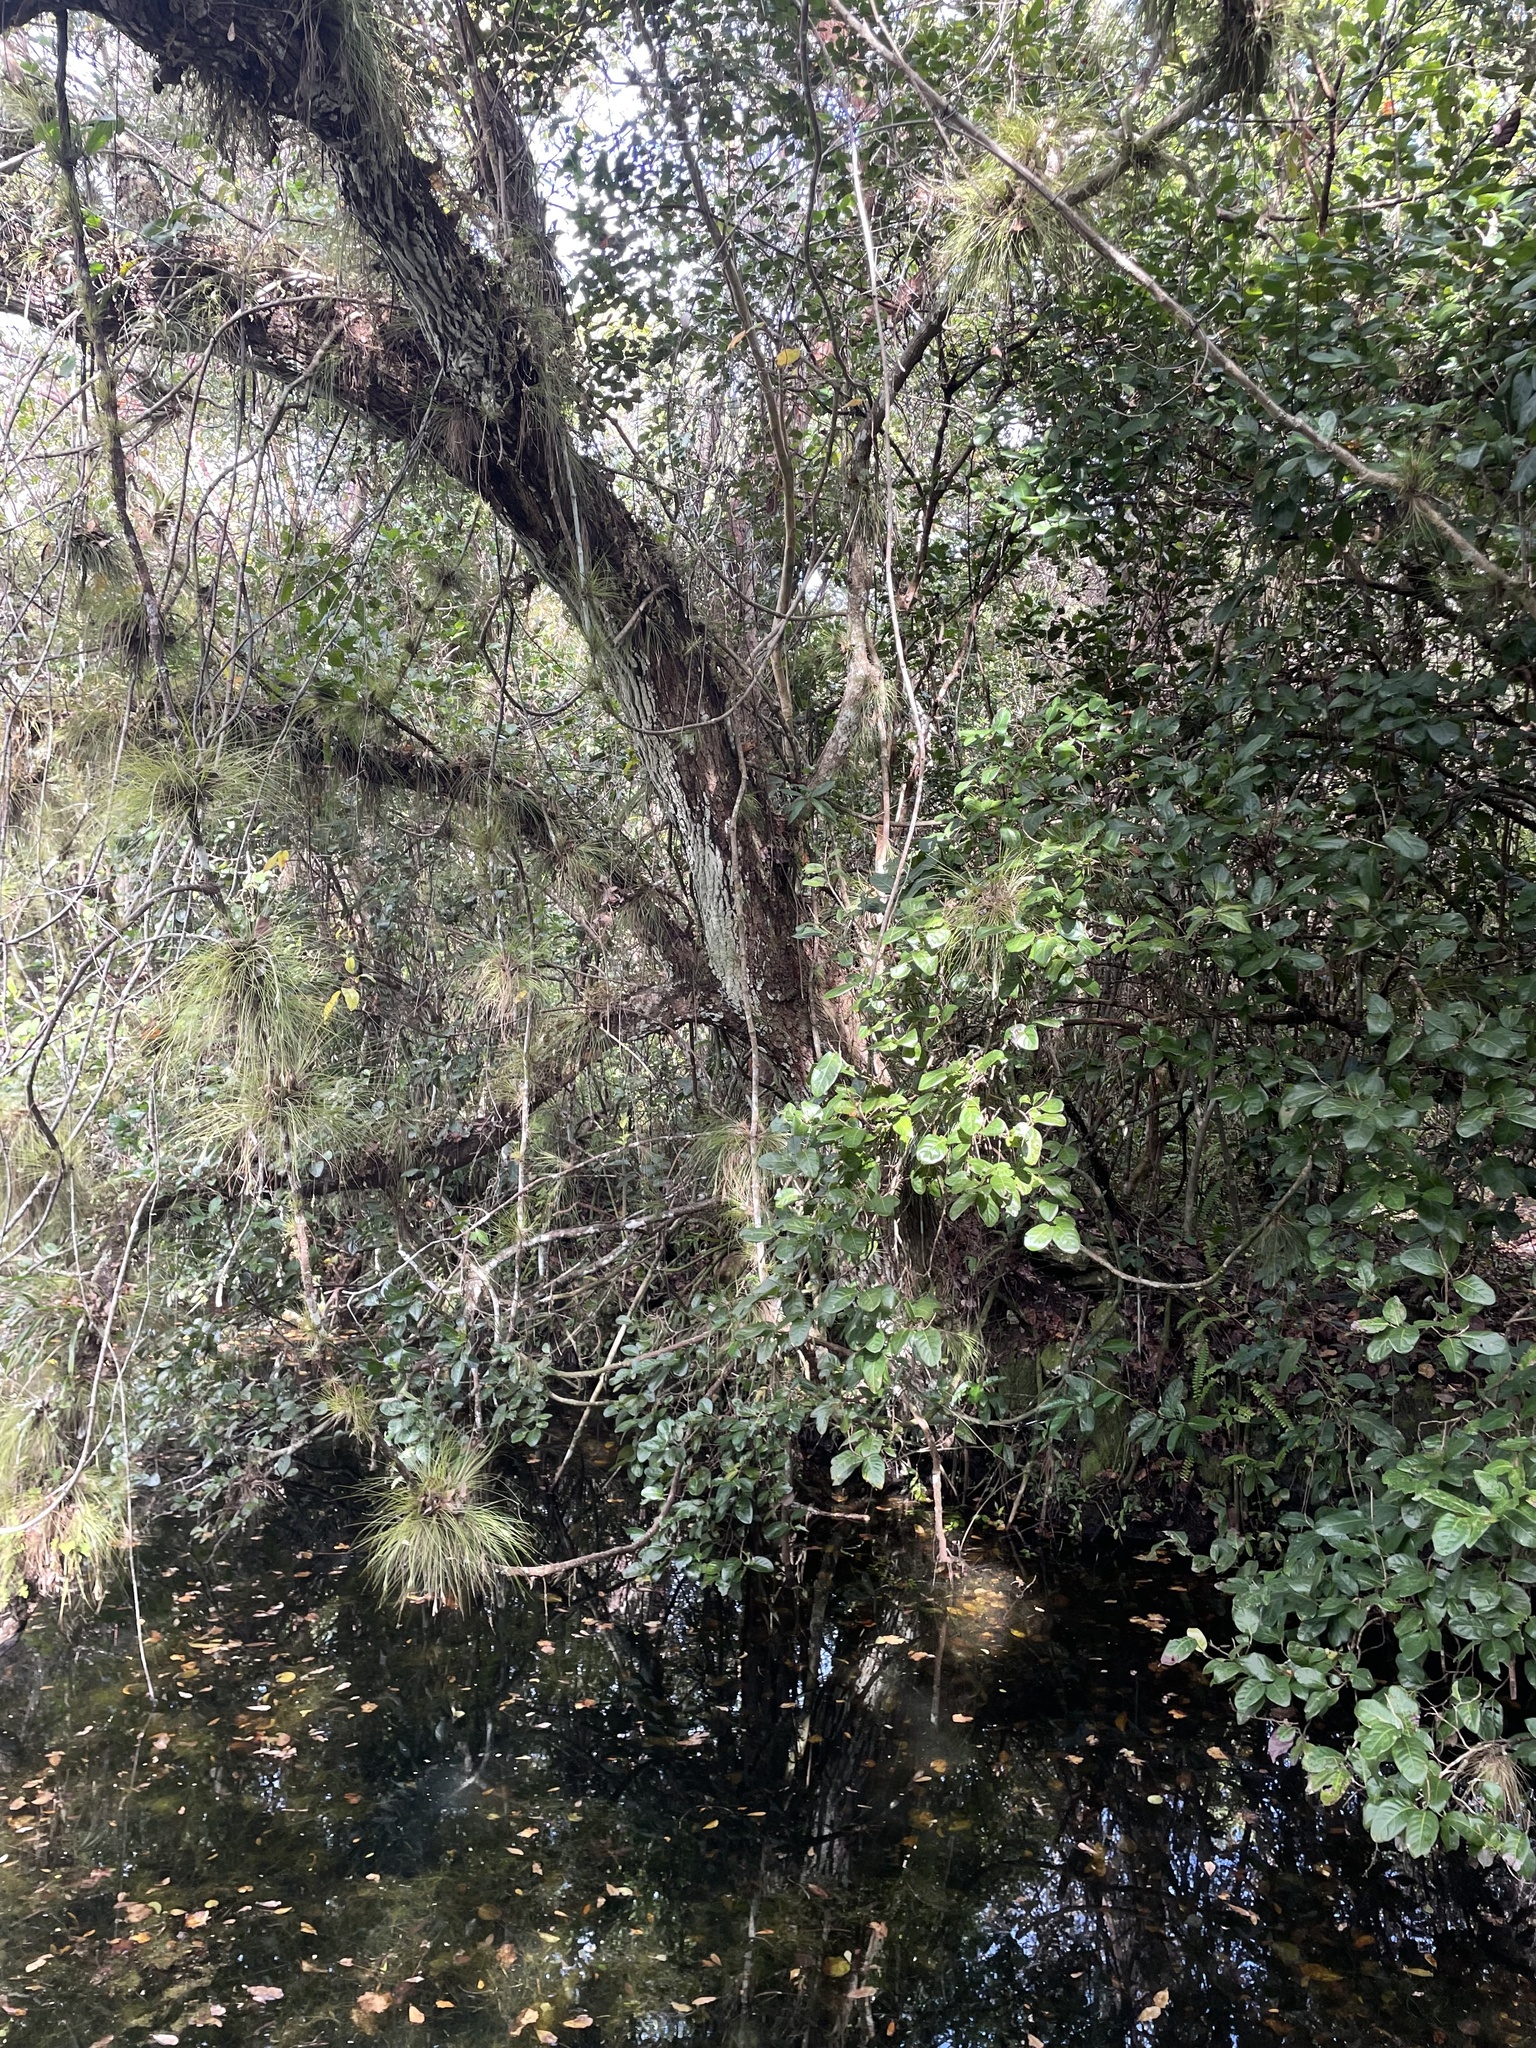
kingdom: Plantae
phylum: Tracheophyta
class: Liliopsida
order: Poales
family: Bromeliaceae
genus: Tillandsia
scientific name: Tillandsia setacea
